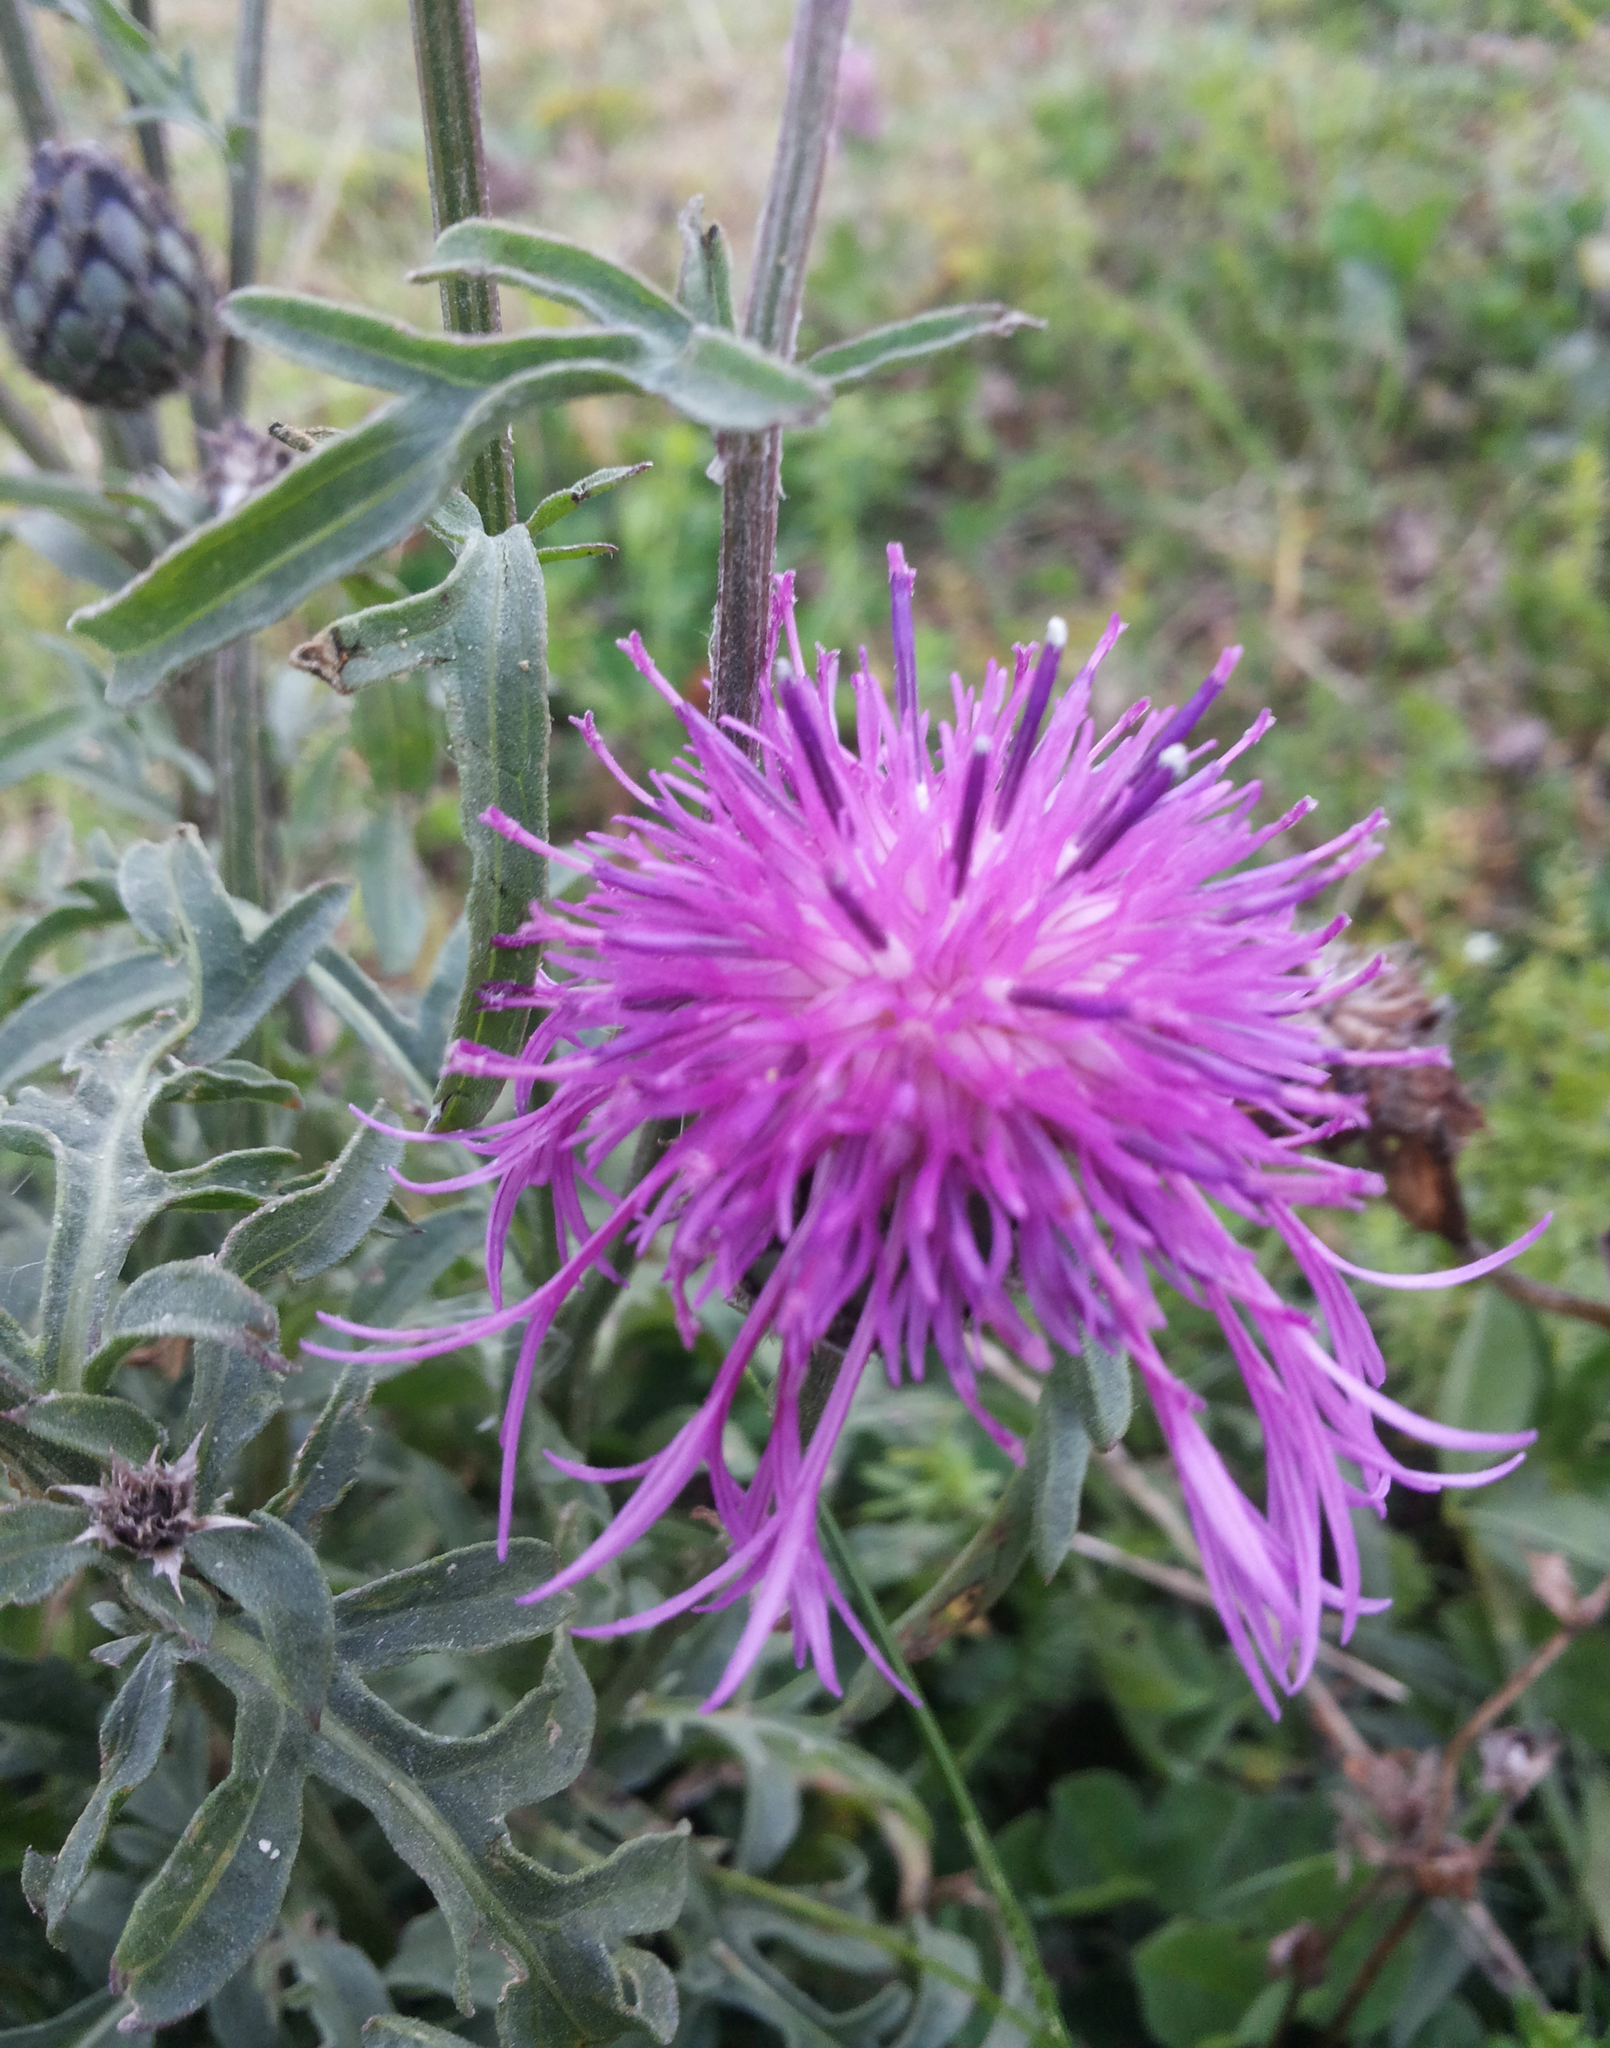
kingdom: Plantae
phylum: Tracheophyta
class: Magnoliopsida
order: Asterales
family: Asteraceae
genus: Centaurea
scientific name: Centaurea scabiosa
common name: Greater knapweed
